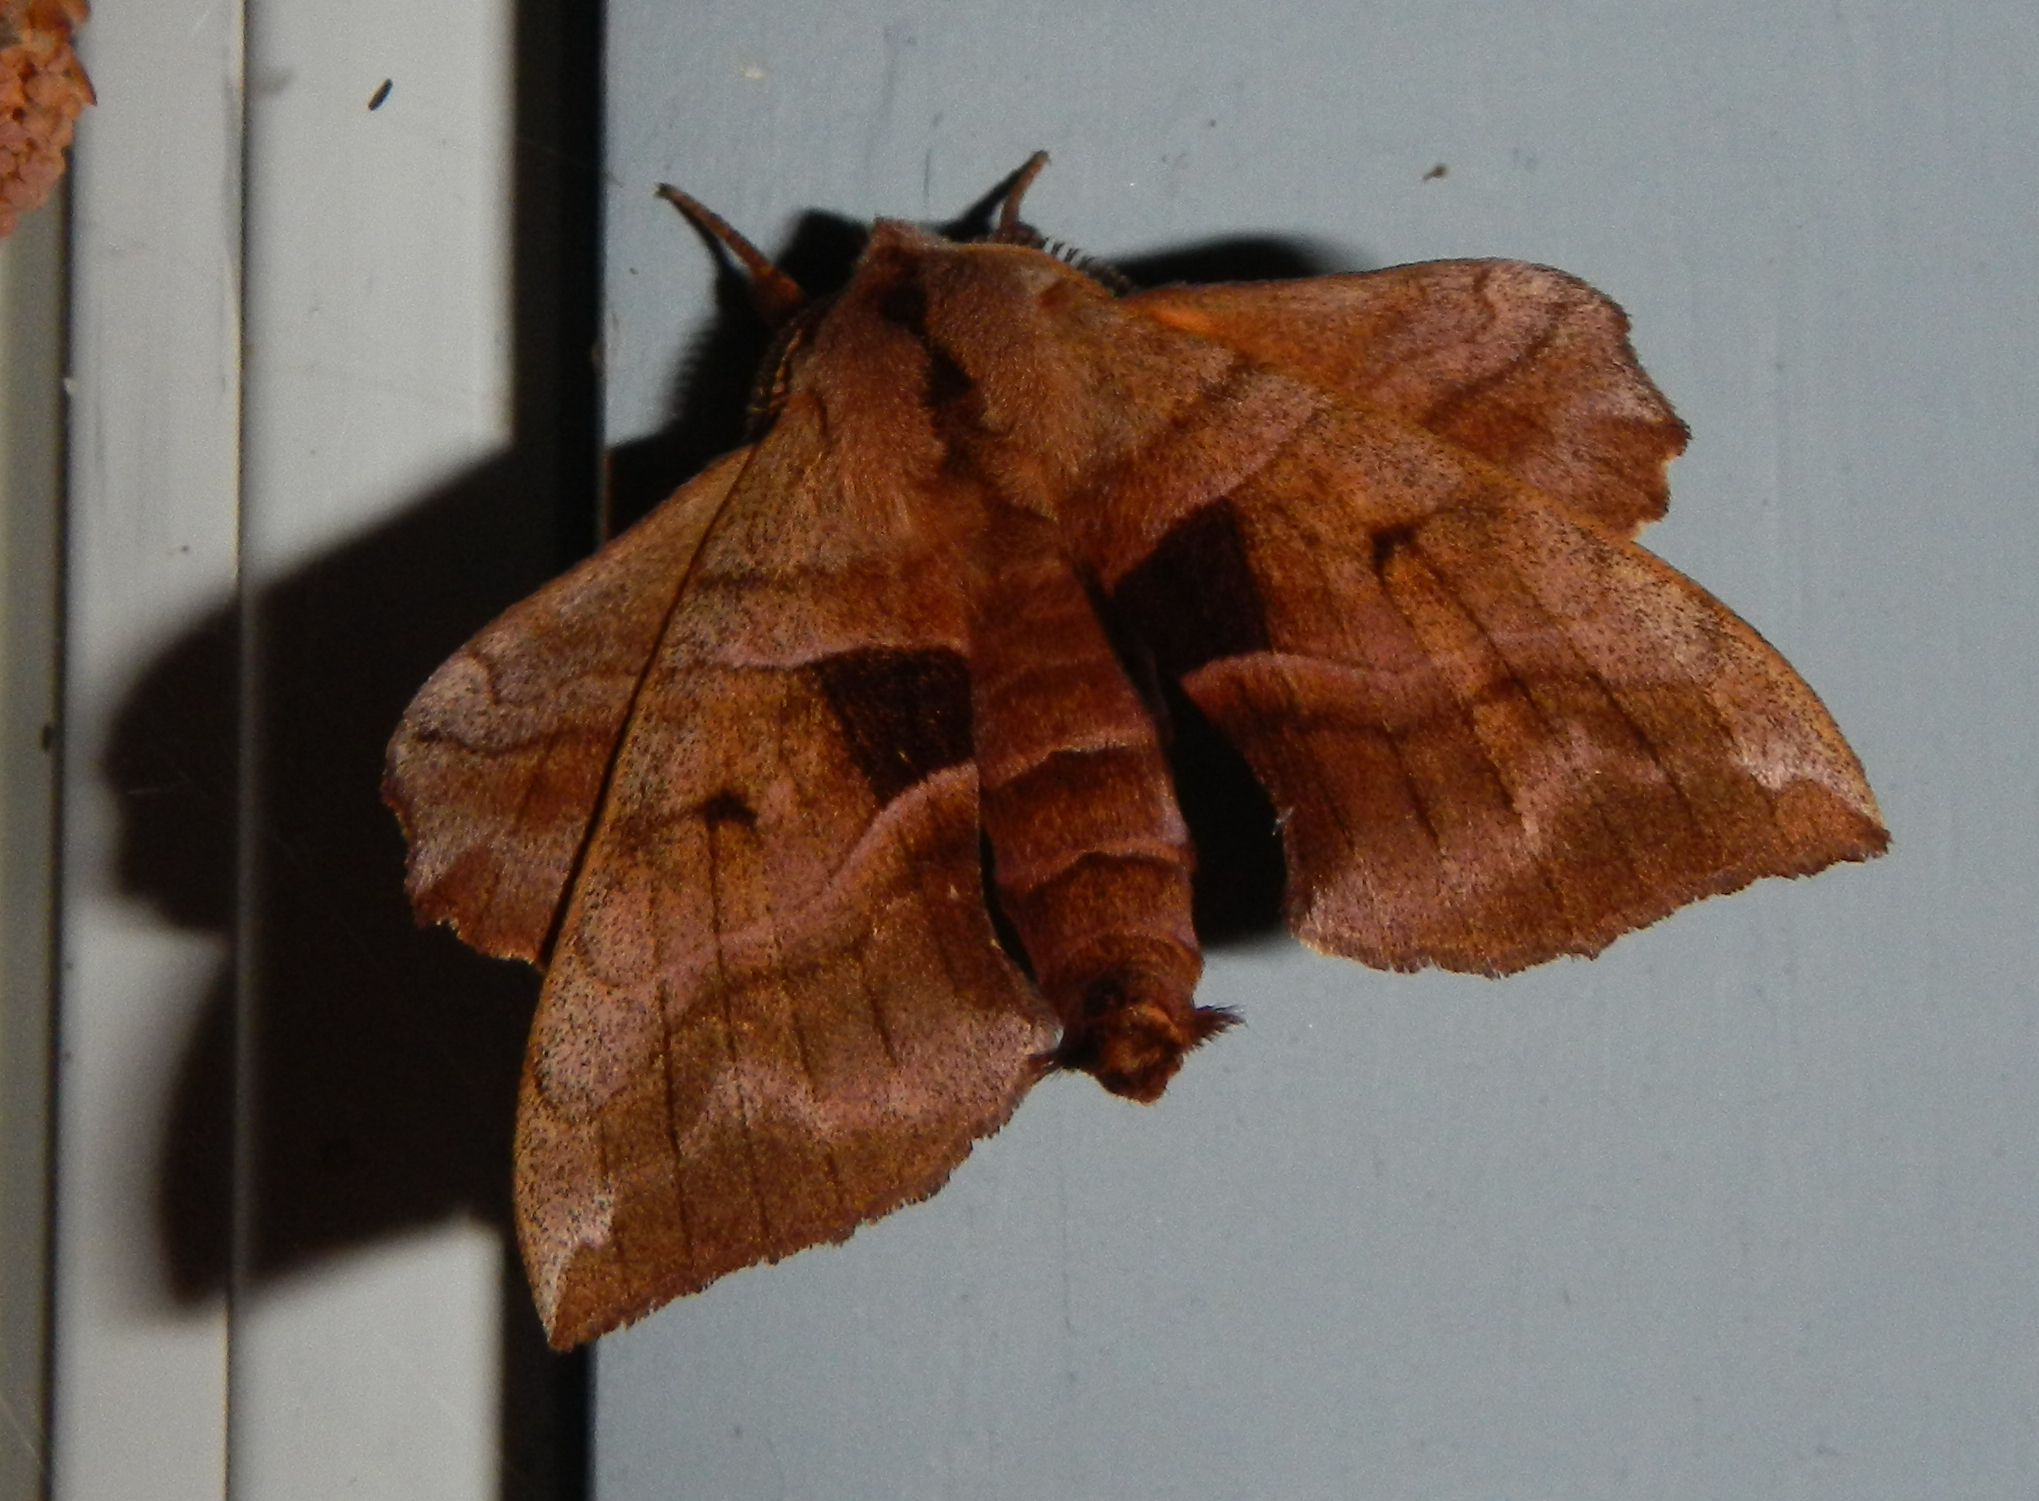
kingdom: Animalia
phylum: Arthropoda
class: Insecta
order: Lepidoptera
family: Sphingidae
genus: Amorpha
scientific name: Amorpha juglandis
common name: Walnut sphinx
